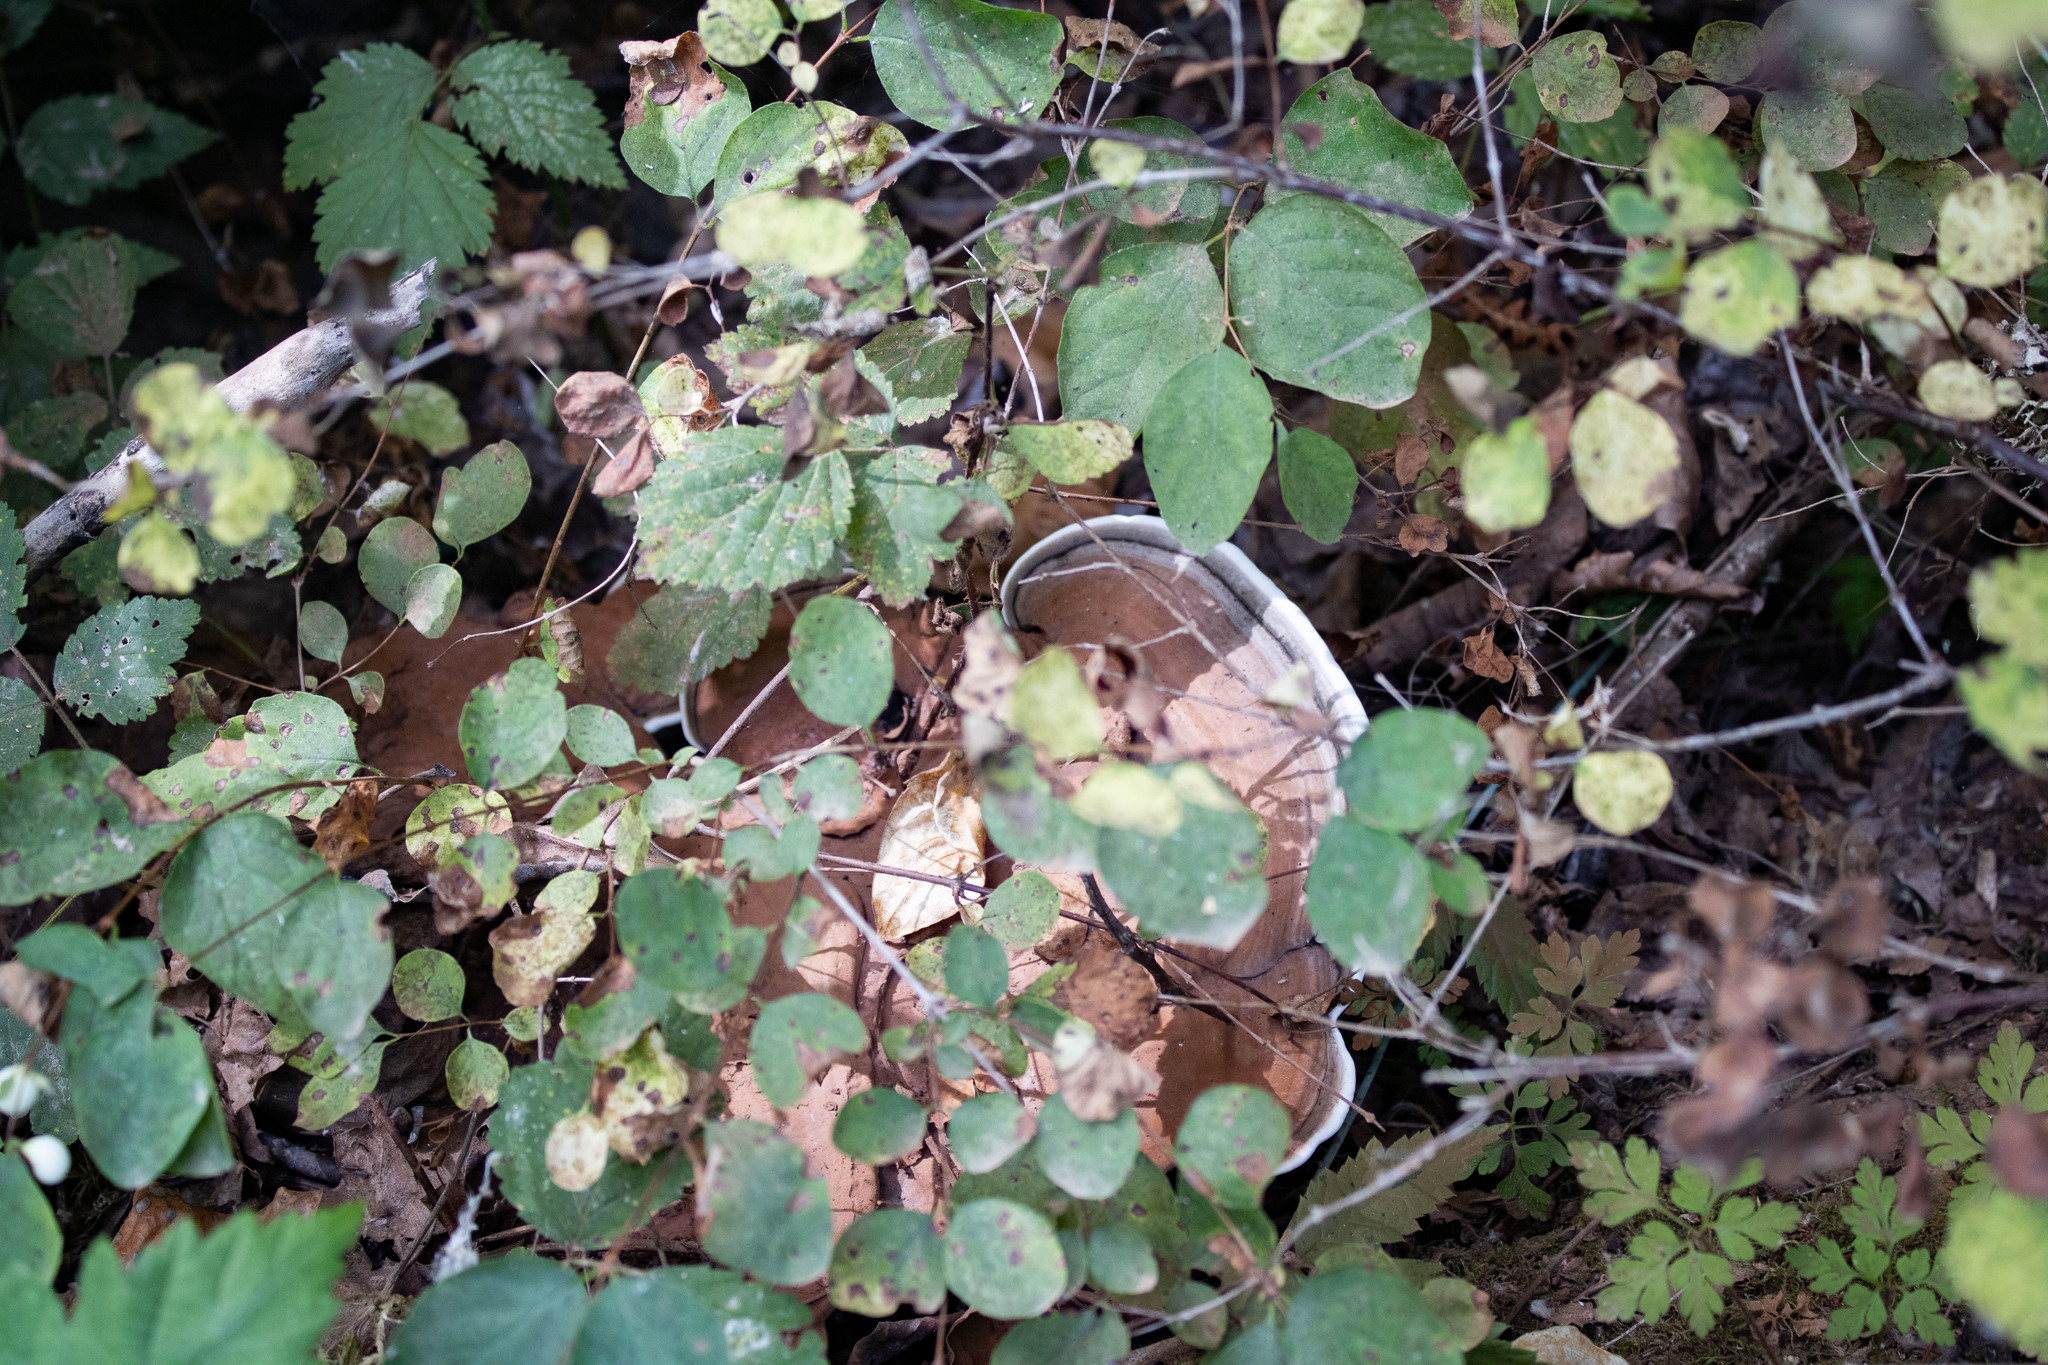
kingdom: Fungi
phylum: Basidiomycota
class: Agaricomycetes
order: Polyporales
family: Polyporaceae
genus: Ganoderma
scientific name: Ganoderma applanatum
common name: Artist's bracket
